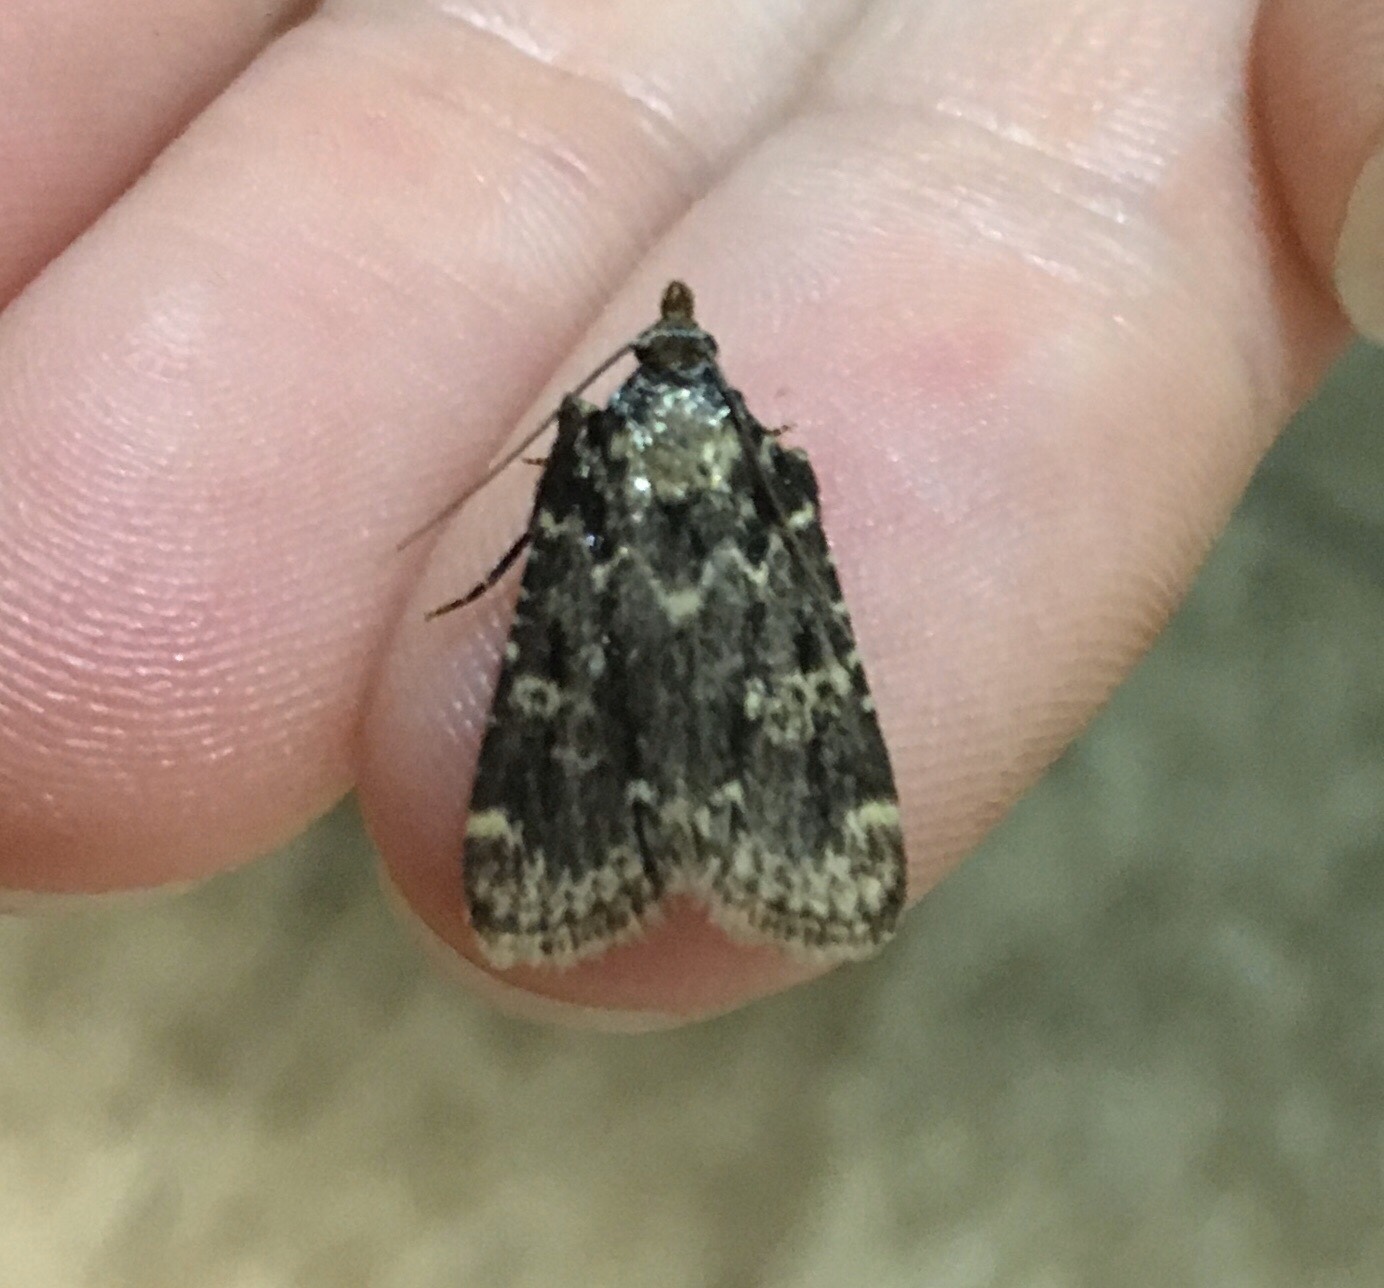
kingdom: Animalia
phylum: Arthropoda
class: Insecta
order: Lepidoptera
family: Pyralidae
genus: Aglossa
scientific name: Aglossa caprealis
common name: Small tabby
